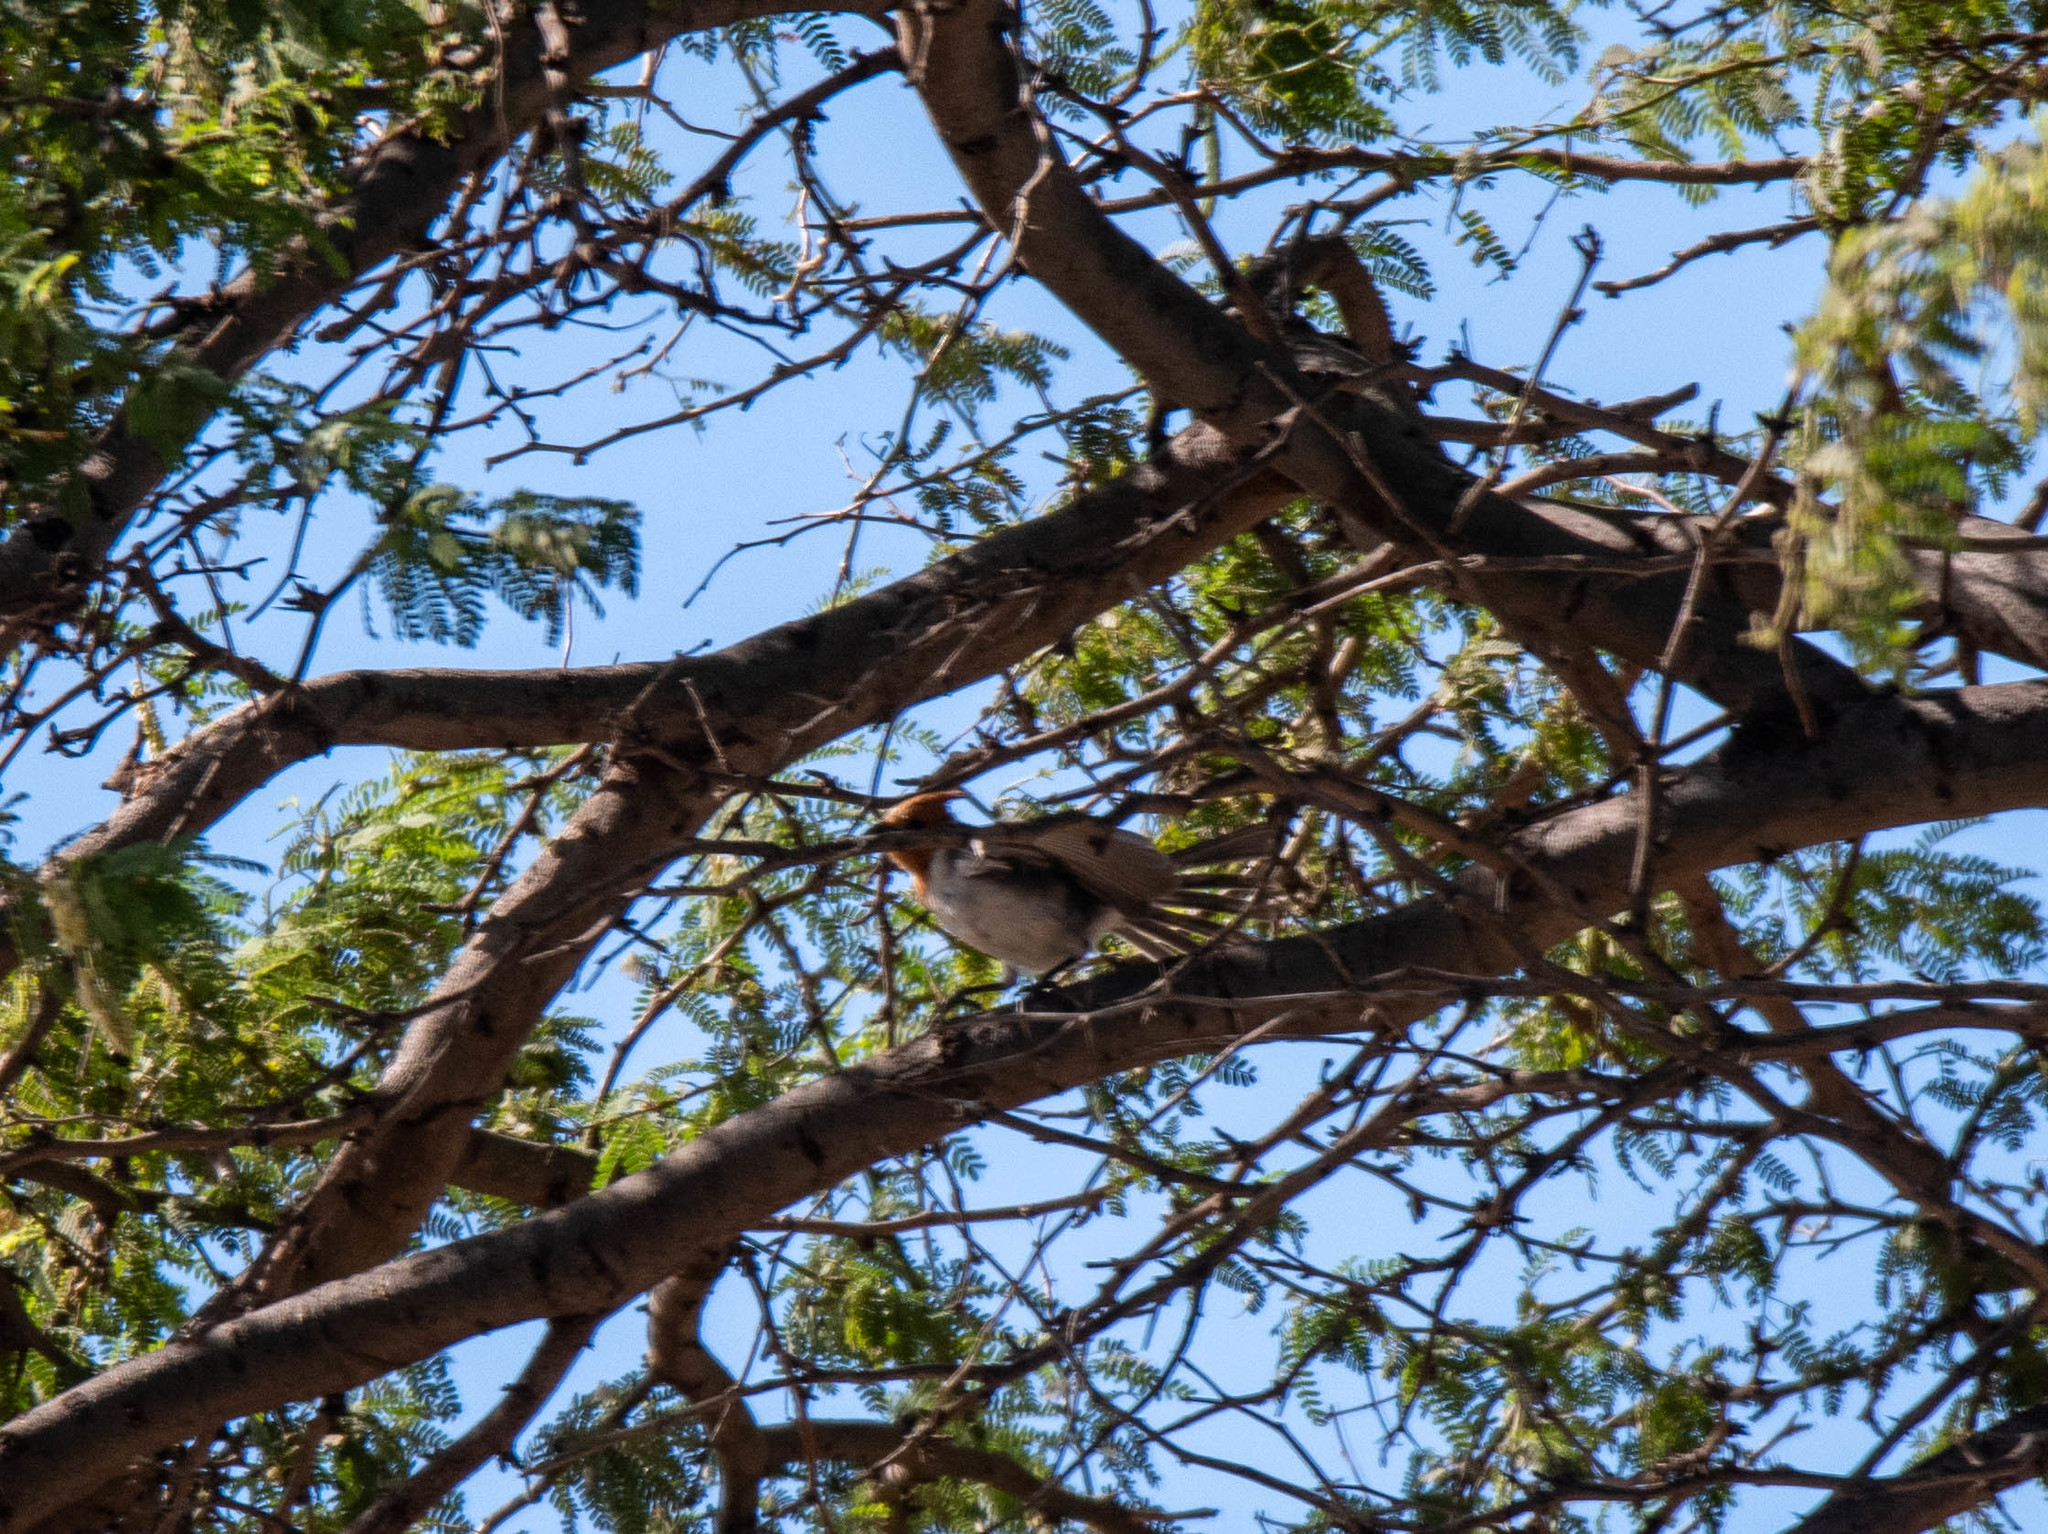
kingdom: Animalia
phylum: Chordata
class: Aves
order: Passeriformes
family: Thraupidae
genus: Paroaria
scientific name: Paroaria coronata
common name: Red-crested cardinal
